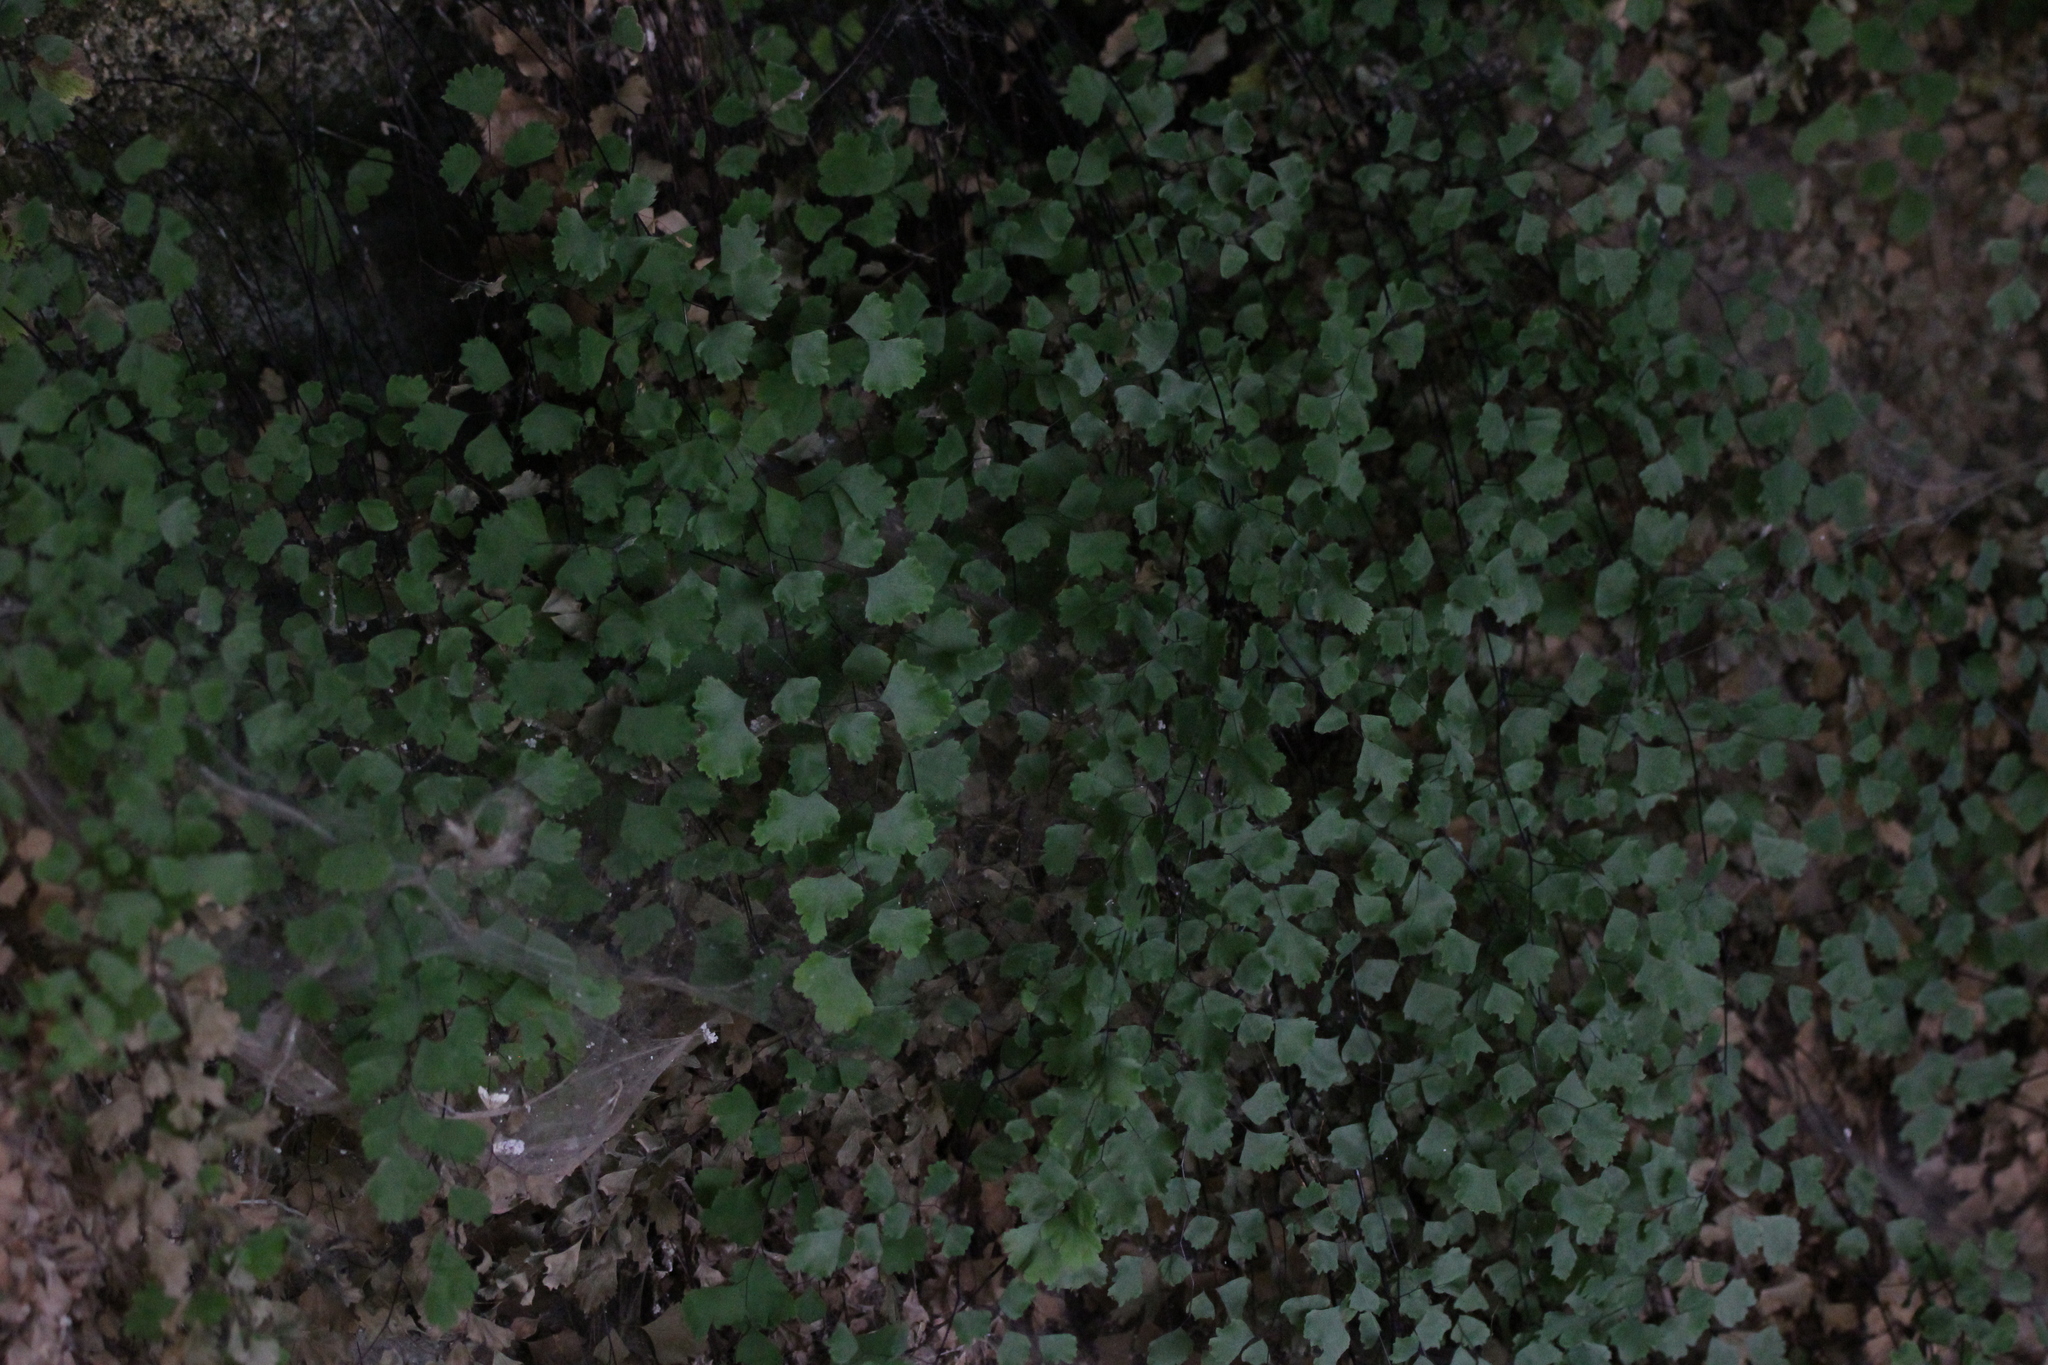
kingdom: Plantae
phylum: Tracheophyta
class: Polypodiopsida
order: Polypodiales
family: Pteridaceae
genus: Adiantum
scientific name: Adiantum capillus-veneris
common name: Maidenhair fern
